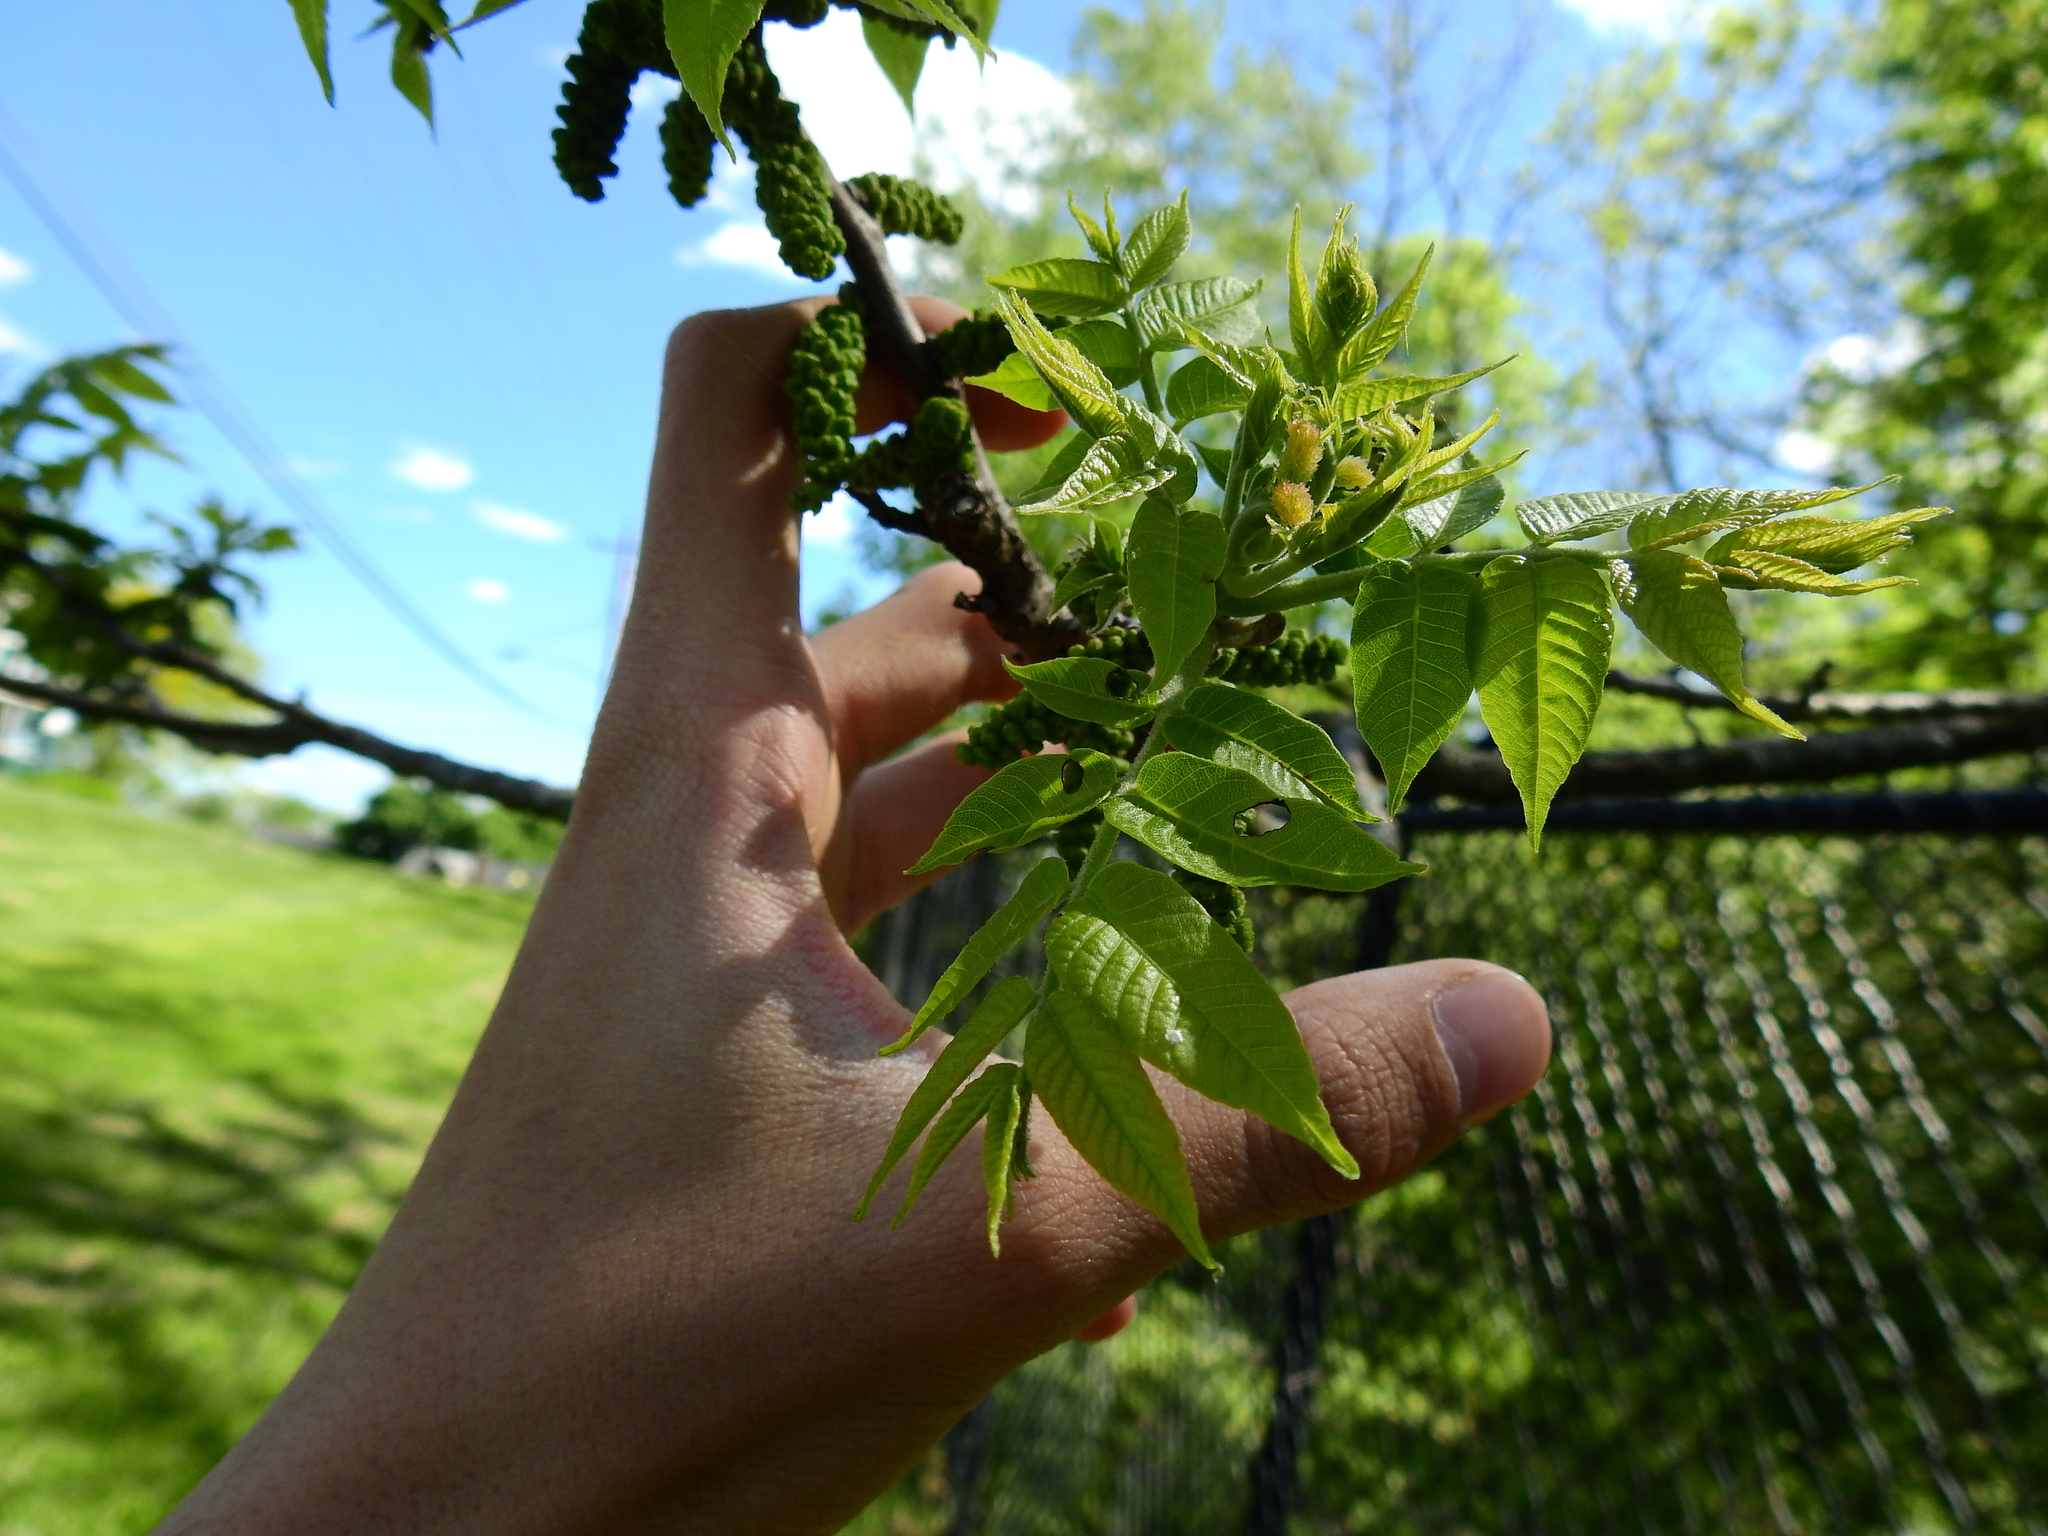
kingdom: Plantae
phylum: Tracheophyta
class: Magnoliopsida
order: Fagales
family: Juglandaceae
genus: Juglans
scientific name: Juglans nigra
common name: Black walnut
